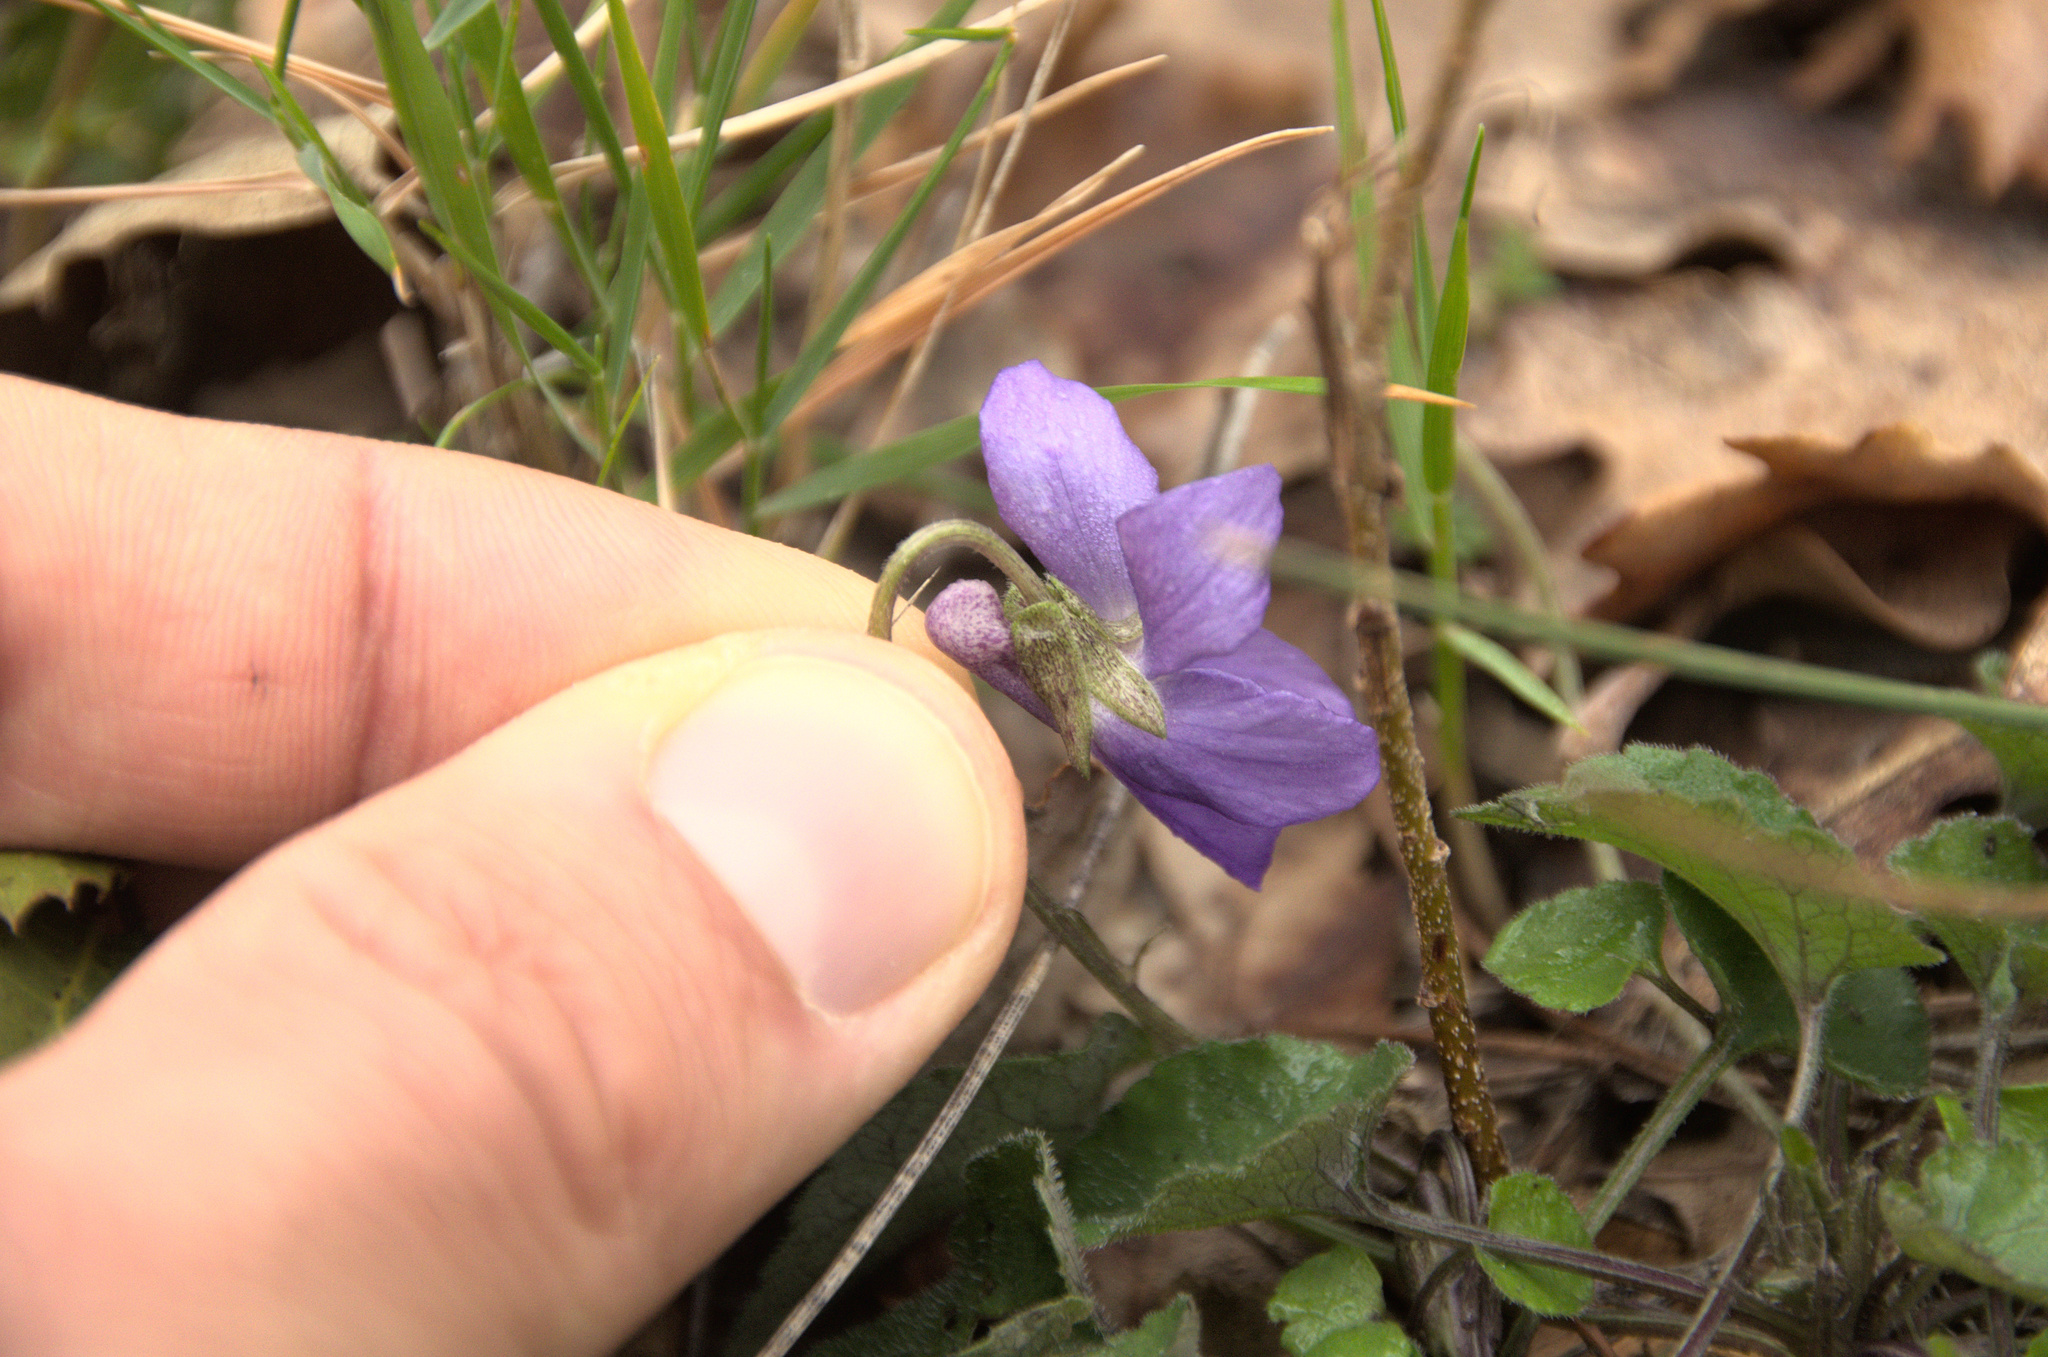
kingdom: Plantae
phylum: Tracheophyta
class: Magnoliopsida
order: Malpighiales
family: Violaceae
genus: Viola
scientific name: Viola odorata
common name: Sweet violet
